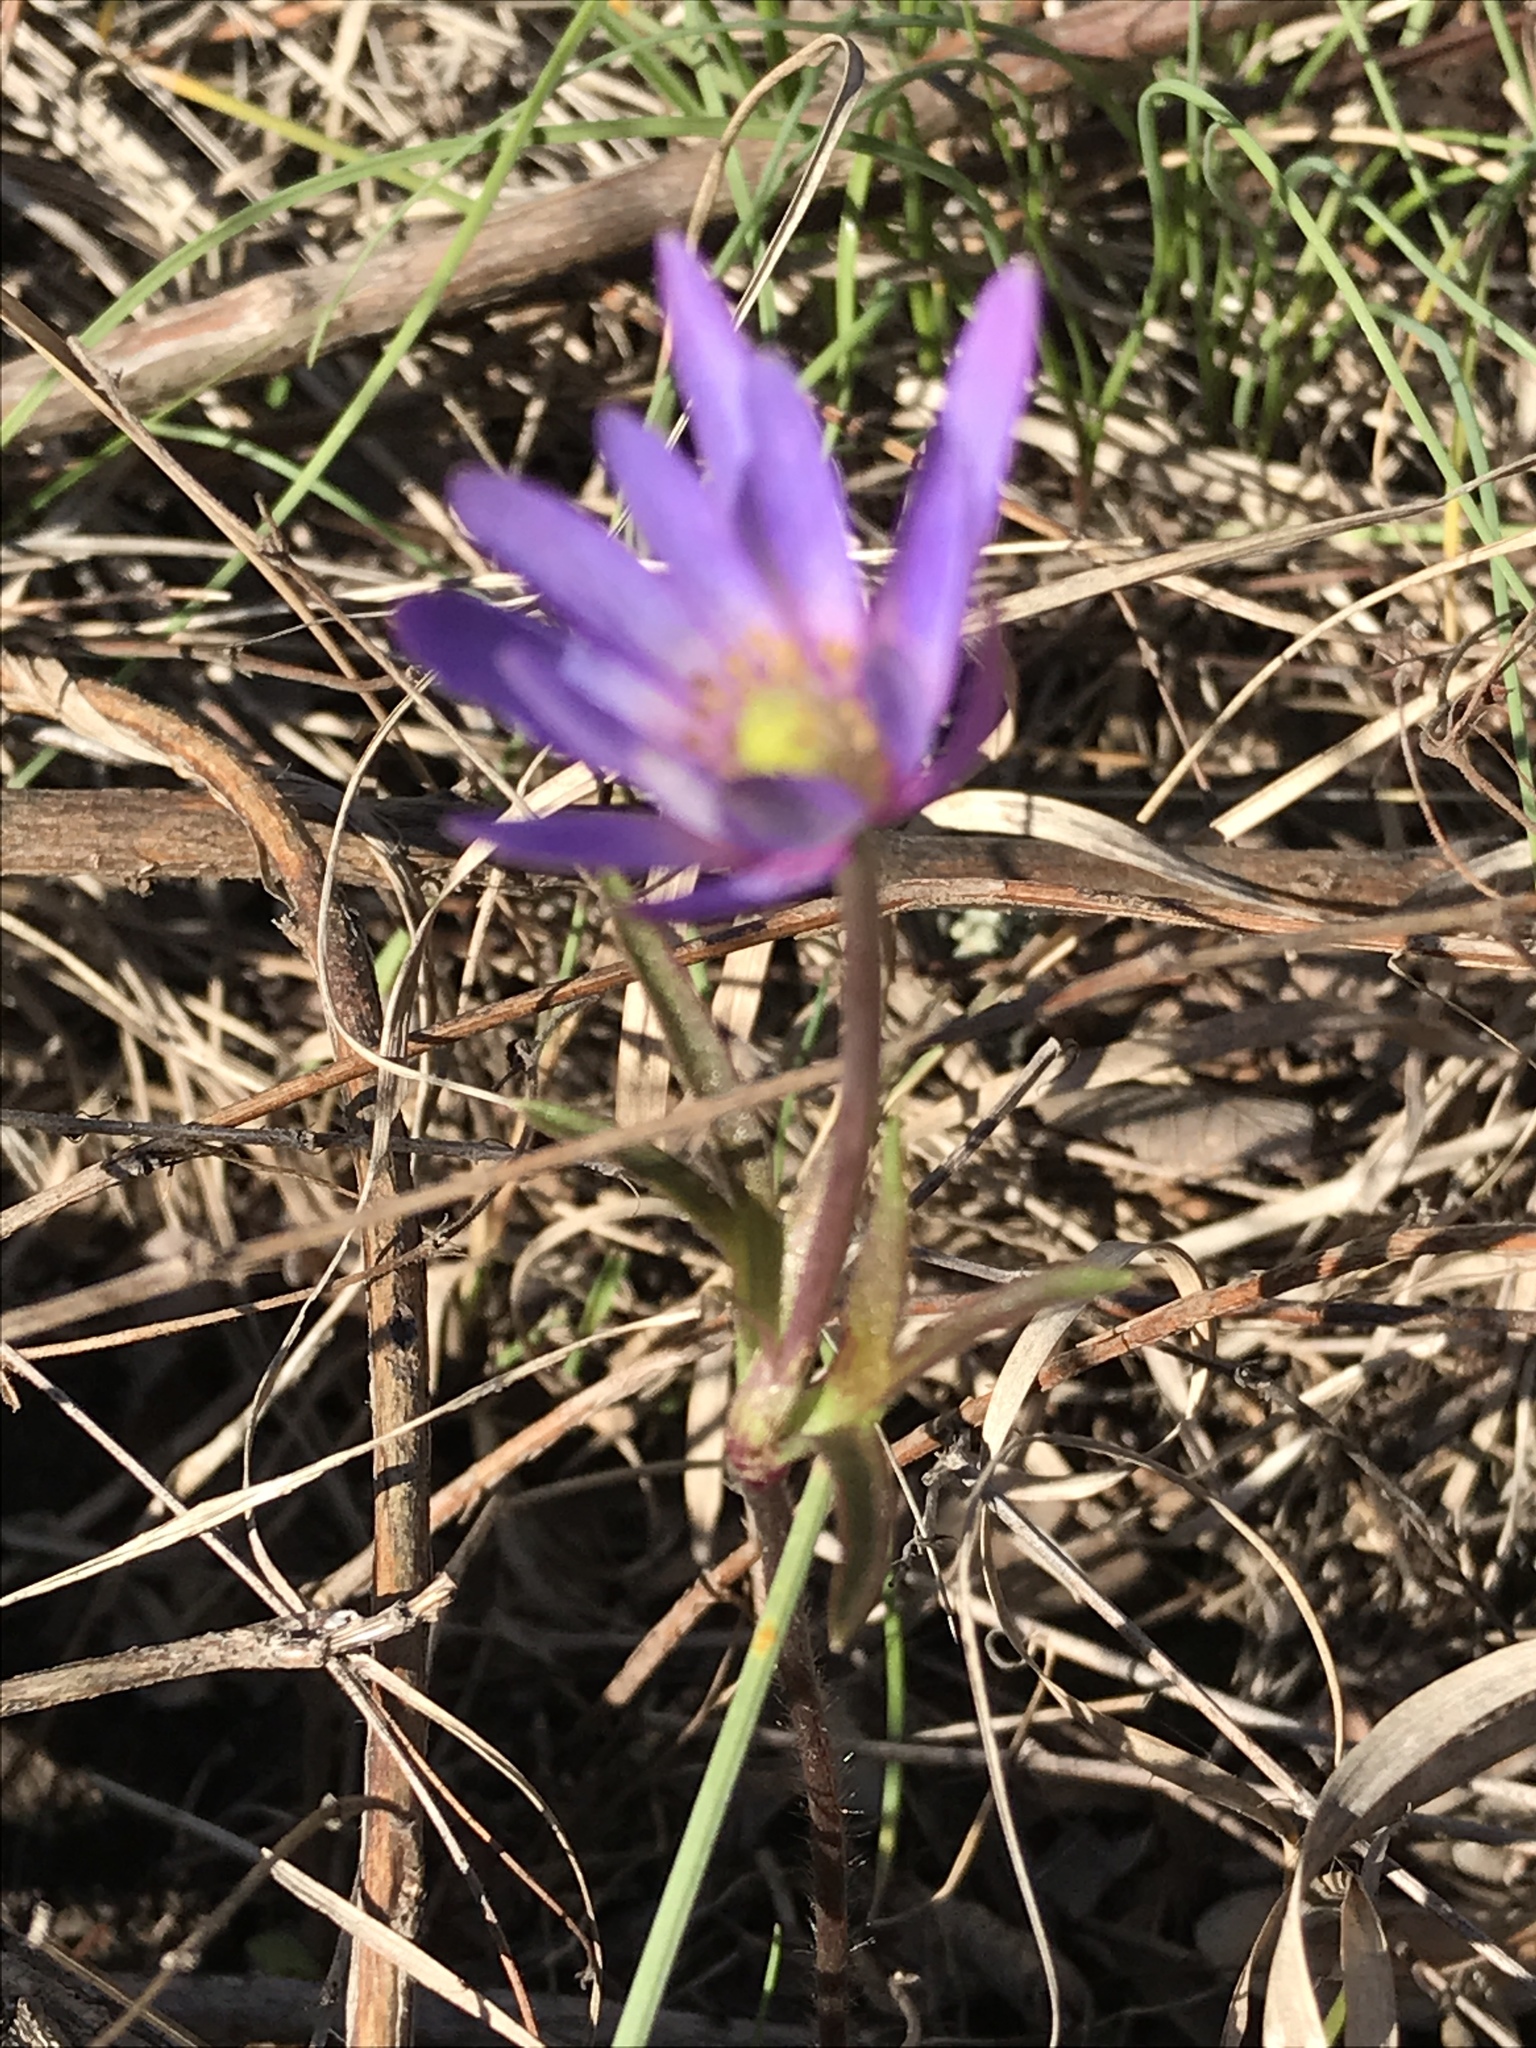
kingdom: Plantae
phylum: Tracheophyta
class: Magnoliopsida
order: Ranunculales
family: Ranunculaceae
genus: Anemone
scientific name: Anemone berlandieri
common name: Ten-petal anemone
